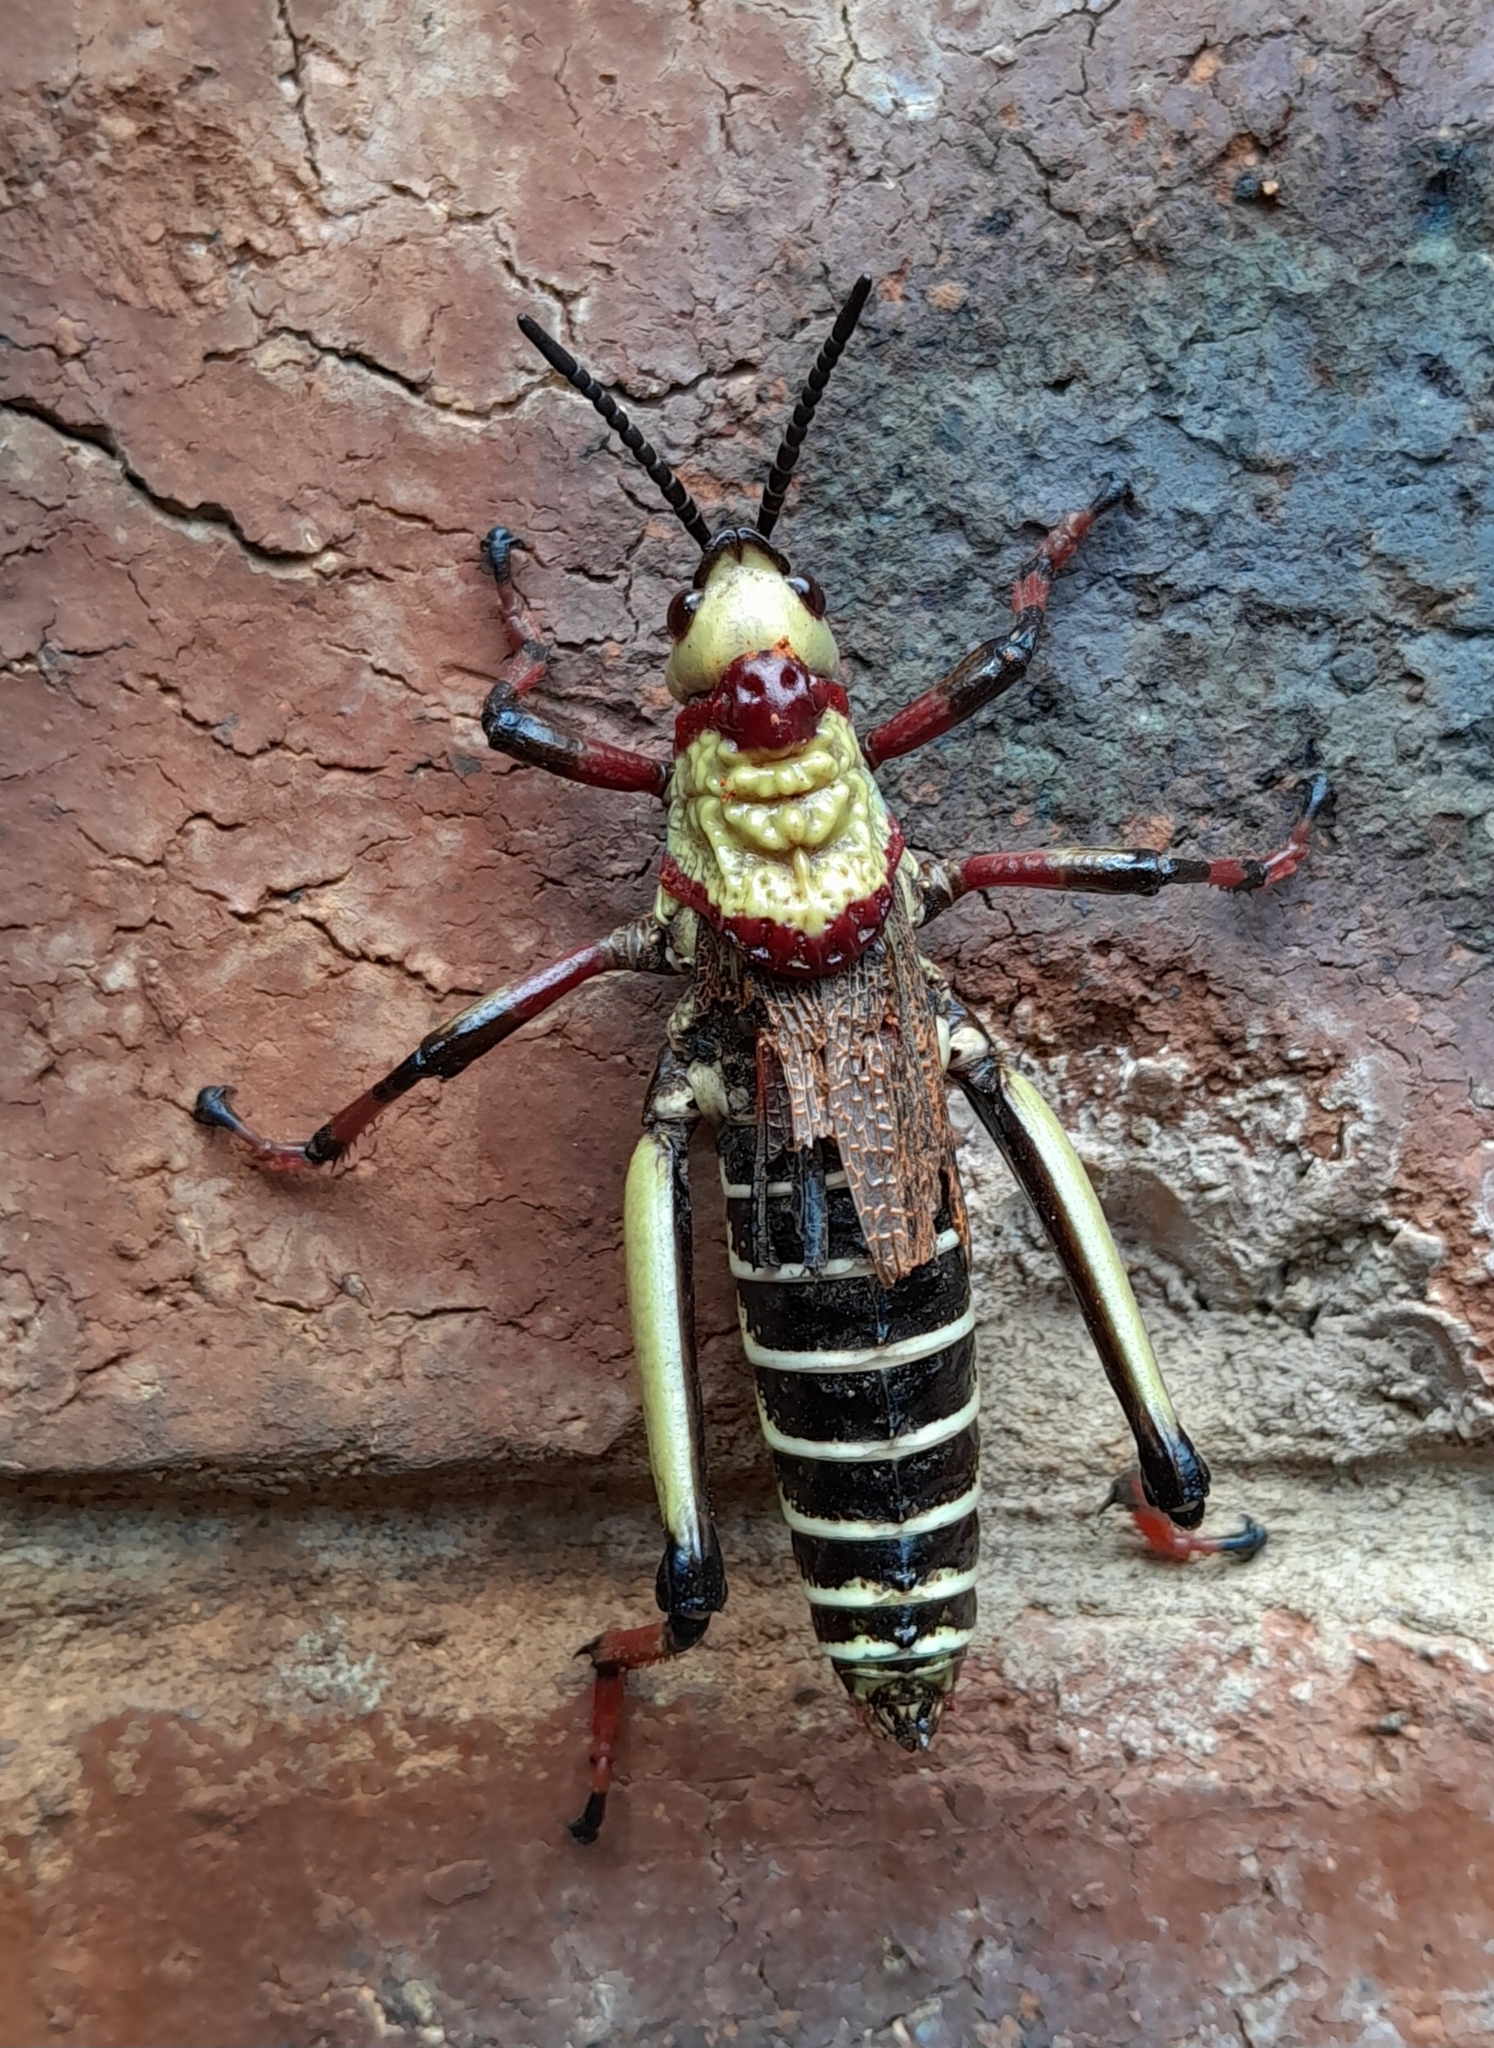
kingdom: Animalia
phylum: Arthropoda
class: Insecta
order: Orthoptera
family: Pyrgomorphidae
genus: Dictyophorus
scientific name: Dictyophorus spumans
